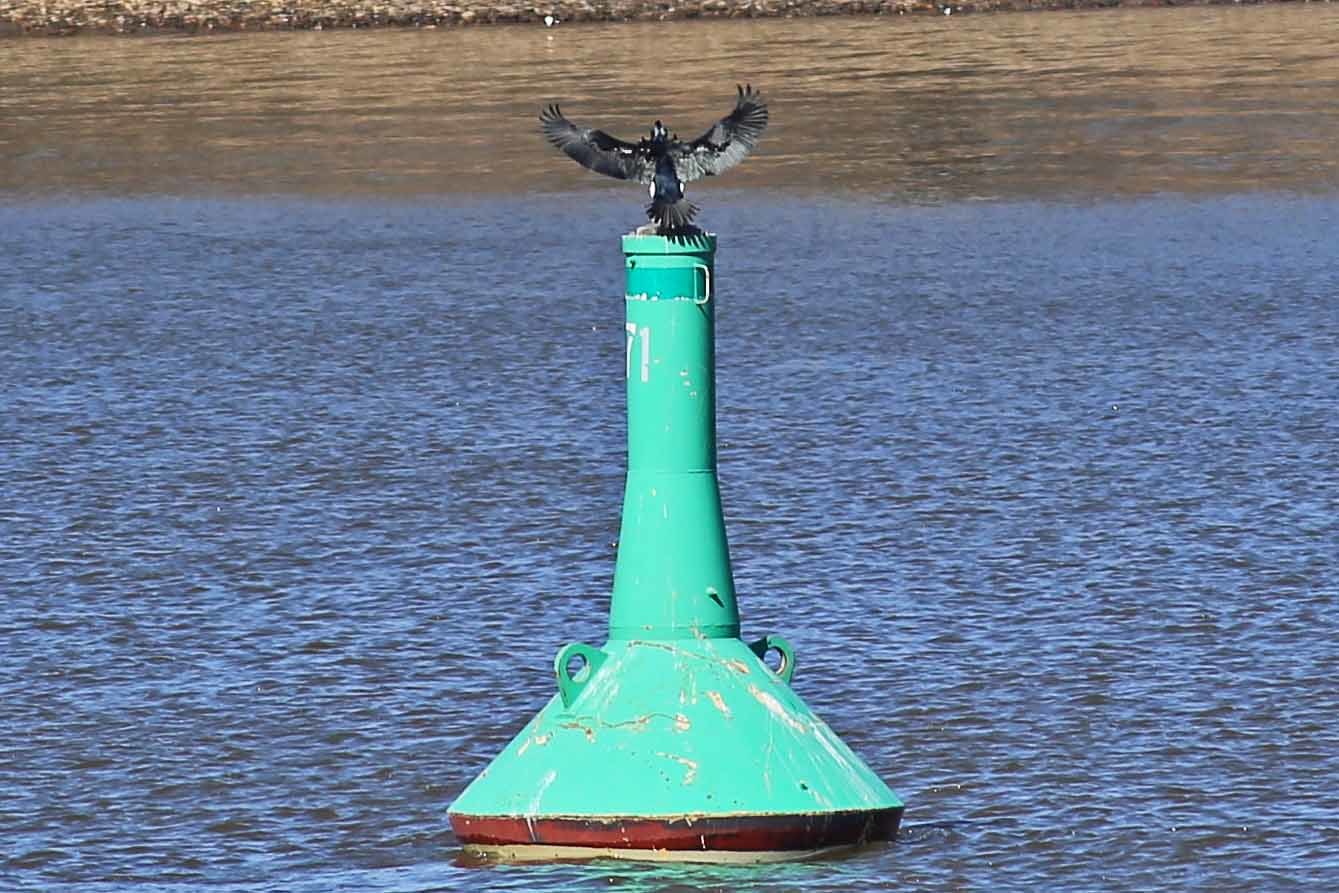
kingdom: Animalia
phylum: Chordata
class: Aves
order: Suliformes
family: Phalacrocoracidae
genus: Phalacrocorax
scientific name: Phalacrocorax carbo
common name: Great cormorant
